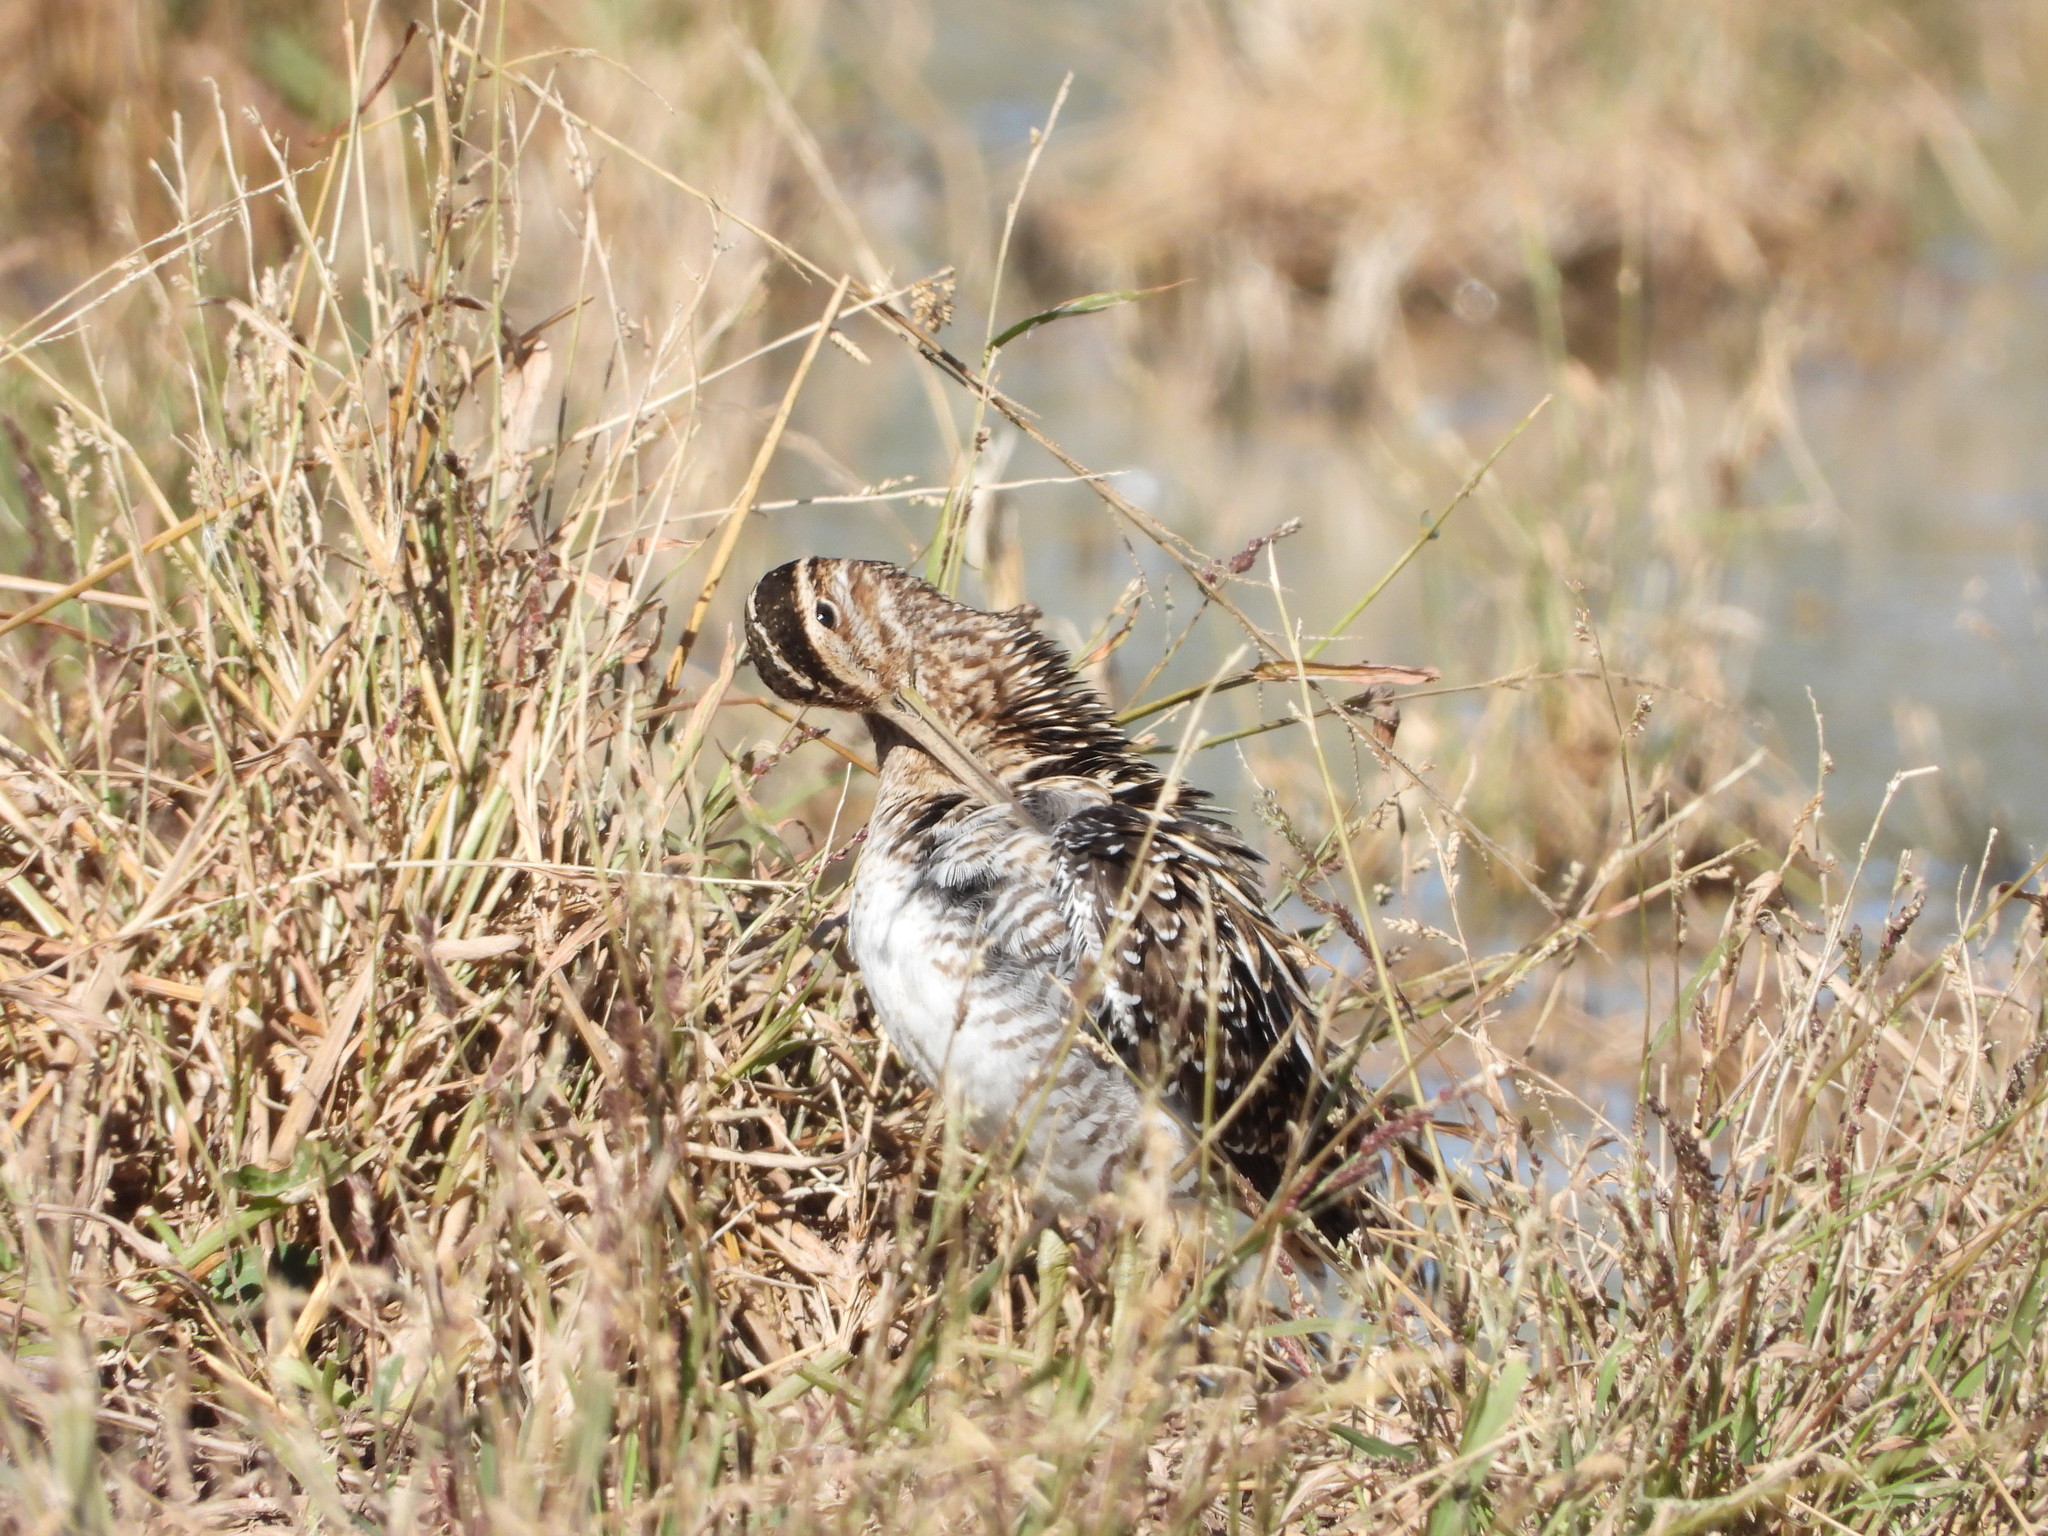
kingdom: Animalia
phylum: Chordata
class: Aves
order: Charadriiformes
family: Scolopacidae
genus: Gallinago
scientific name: Gallinago delicata
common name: Wilson's snipe
